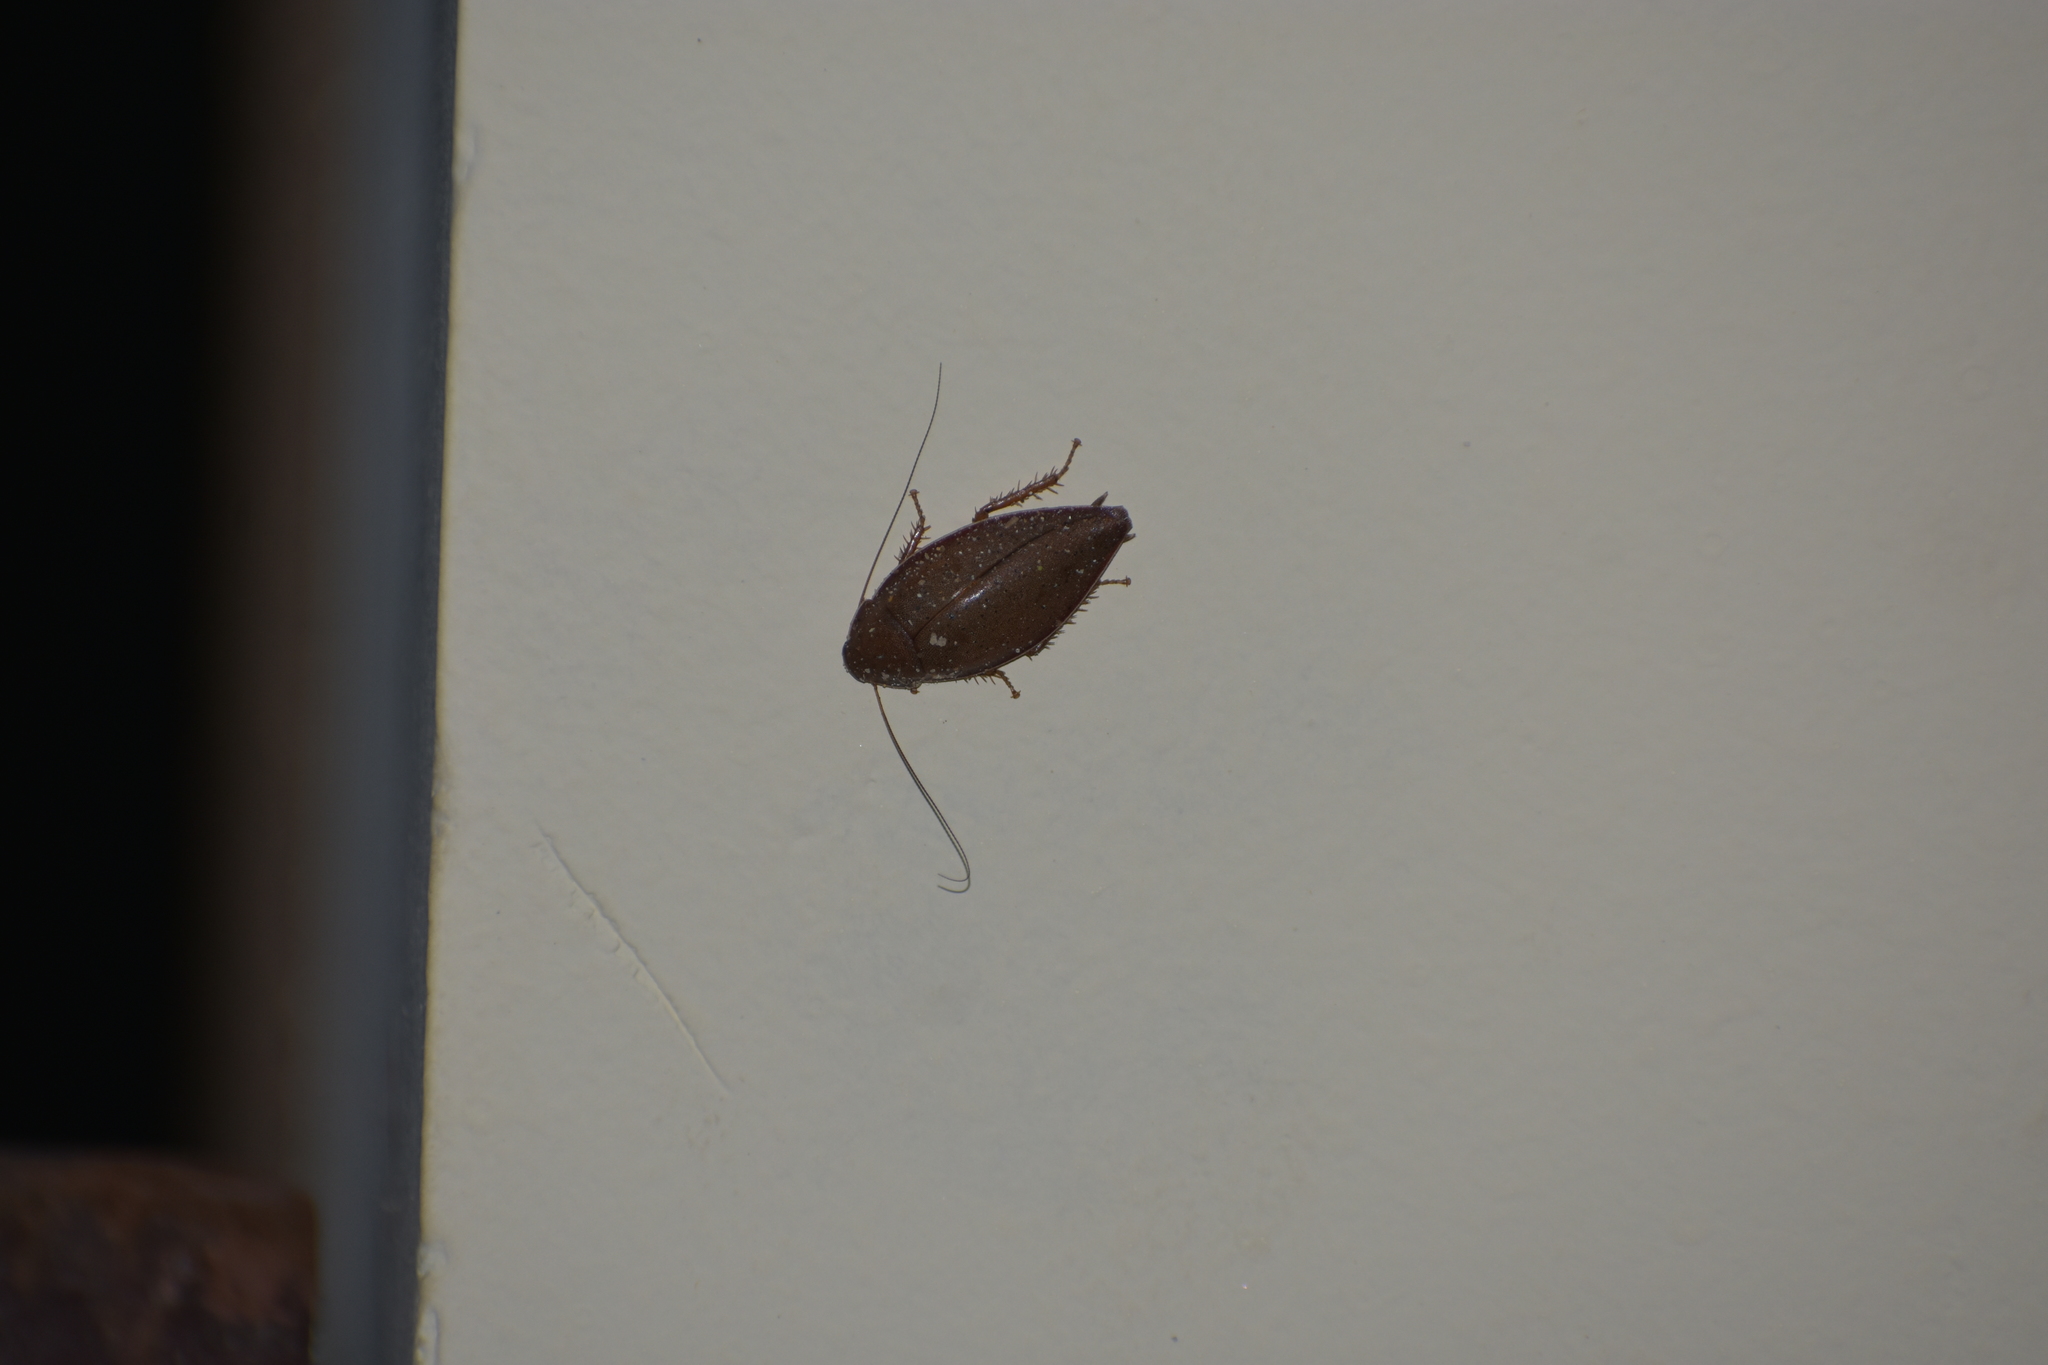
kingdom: Animalia
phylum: Arthropoda
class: Insecta
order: Blattodea
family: Blaberidae
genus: Thorax
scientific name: Thorax porcellana
